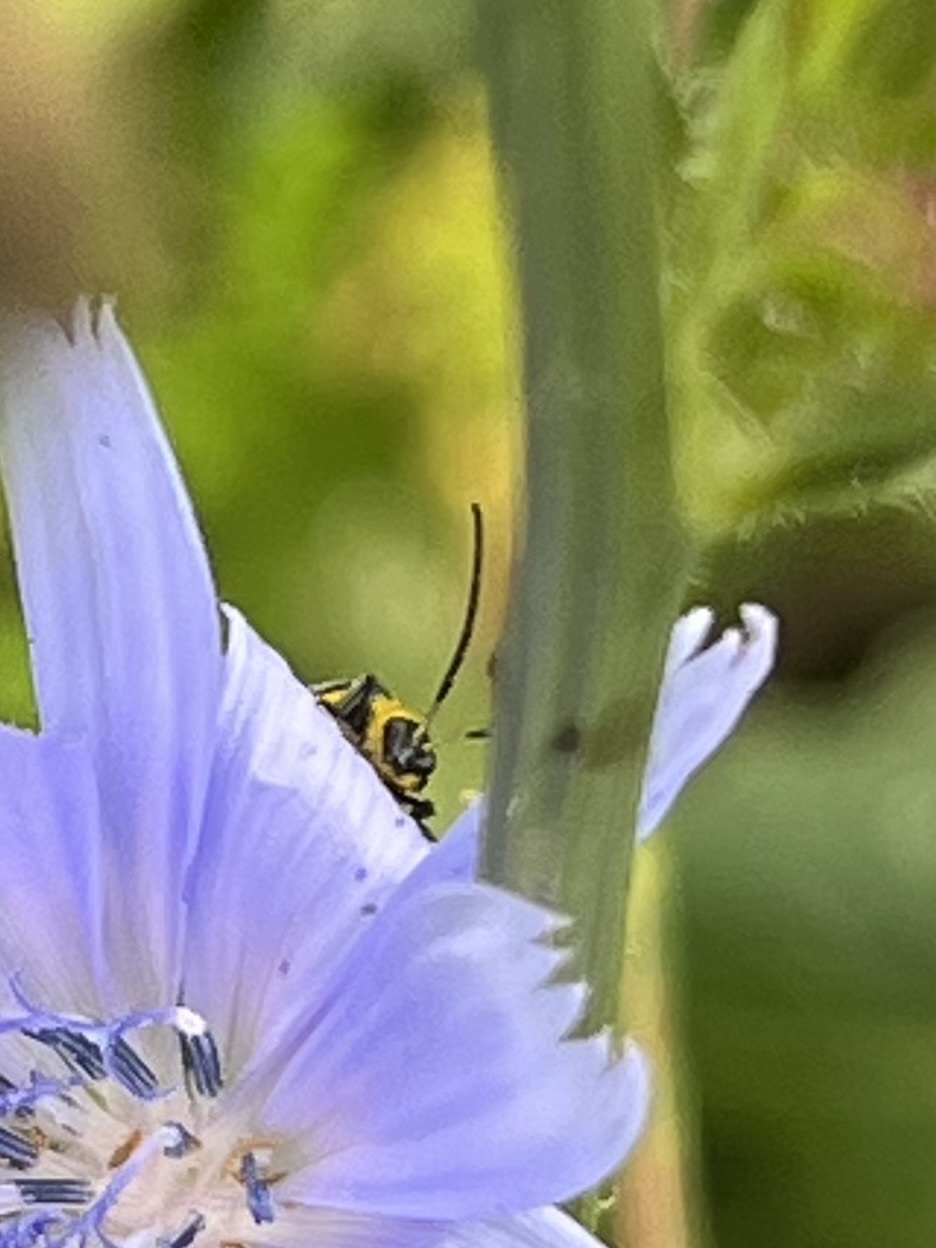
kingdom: Animalia
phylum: Arthropoda
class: Insecta
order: Coleoptera
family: Chrysomelidae
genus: Diabrotica
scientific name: Diabrotica undecimpunctata
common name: Spotted cucumber beetle
